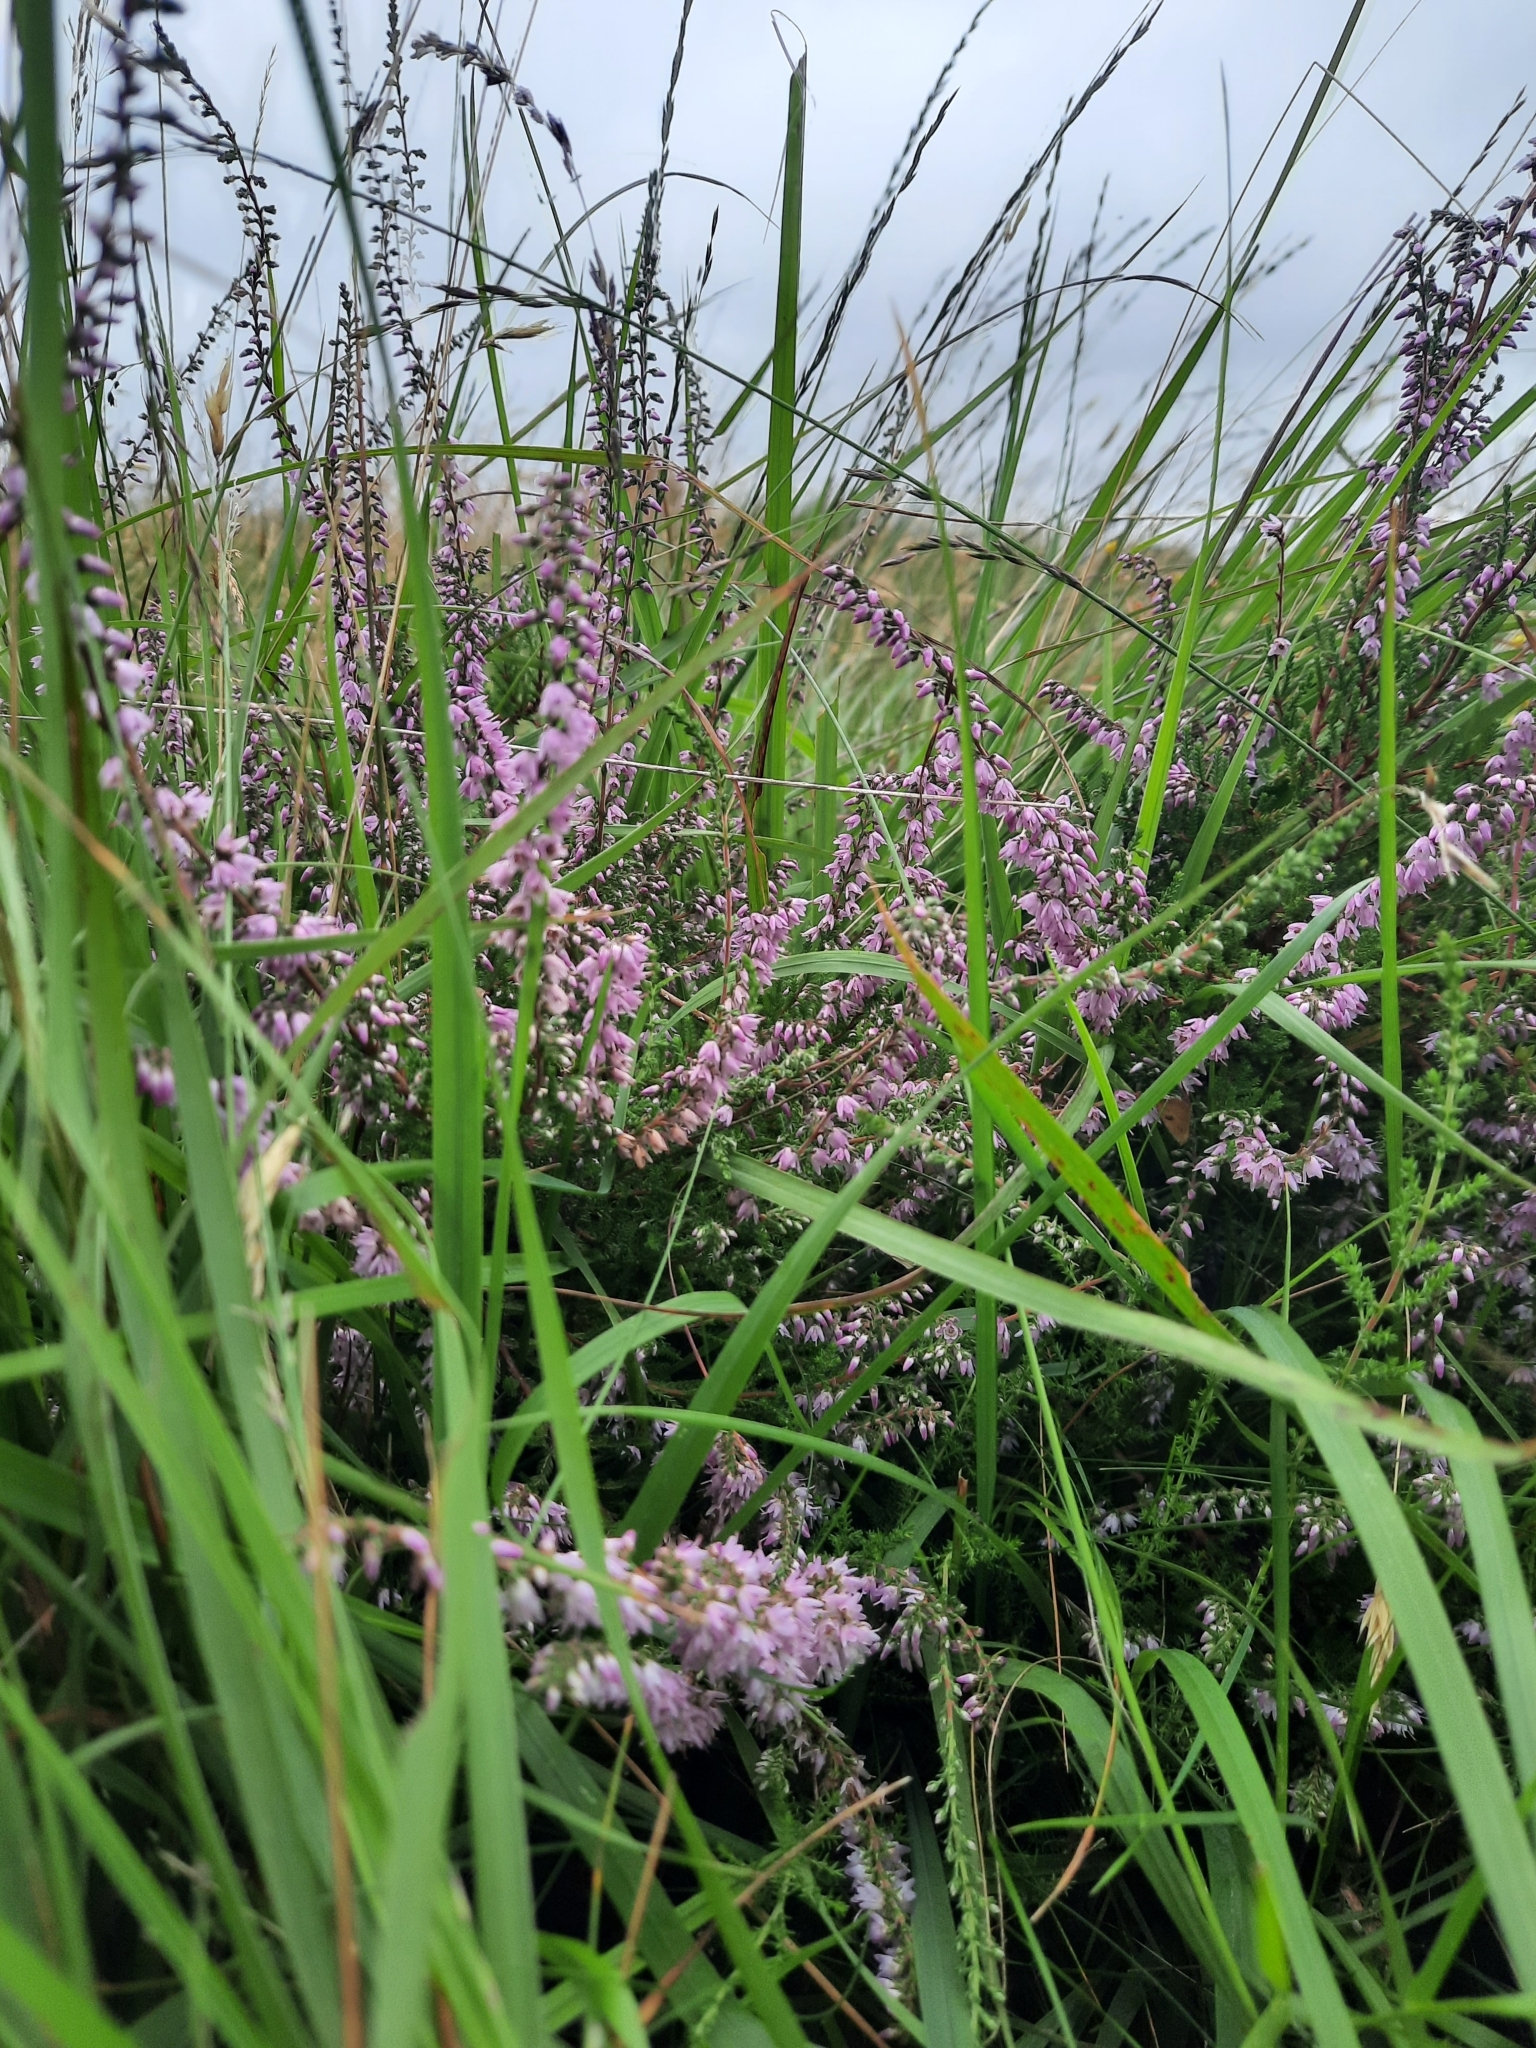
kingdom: Plantae
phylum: Tracheophyta
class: Magnoliopsida
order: Ericales
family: Ericaceae
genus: Calluna
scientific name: Calluna vulgaris
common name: Heather
